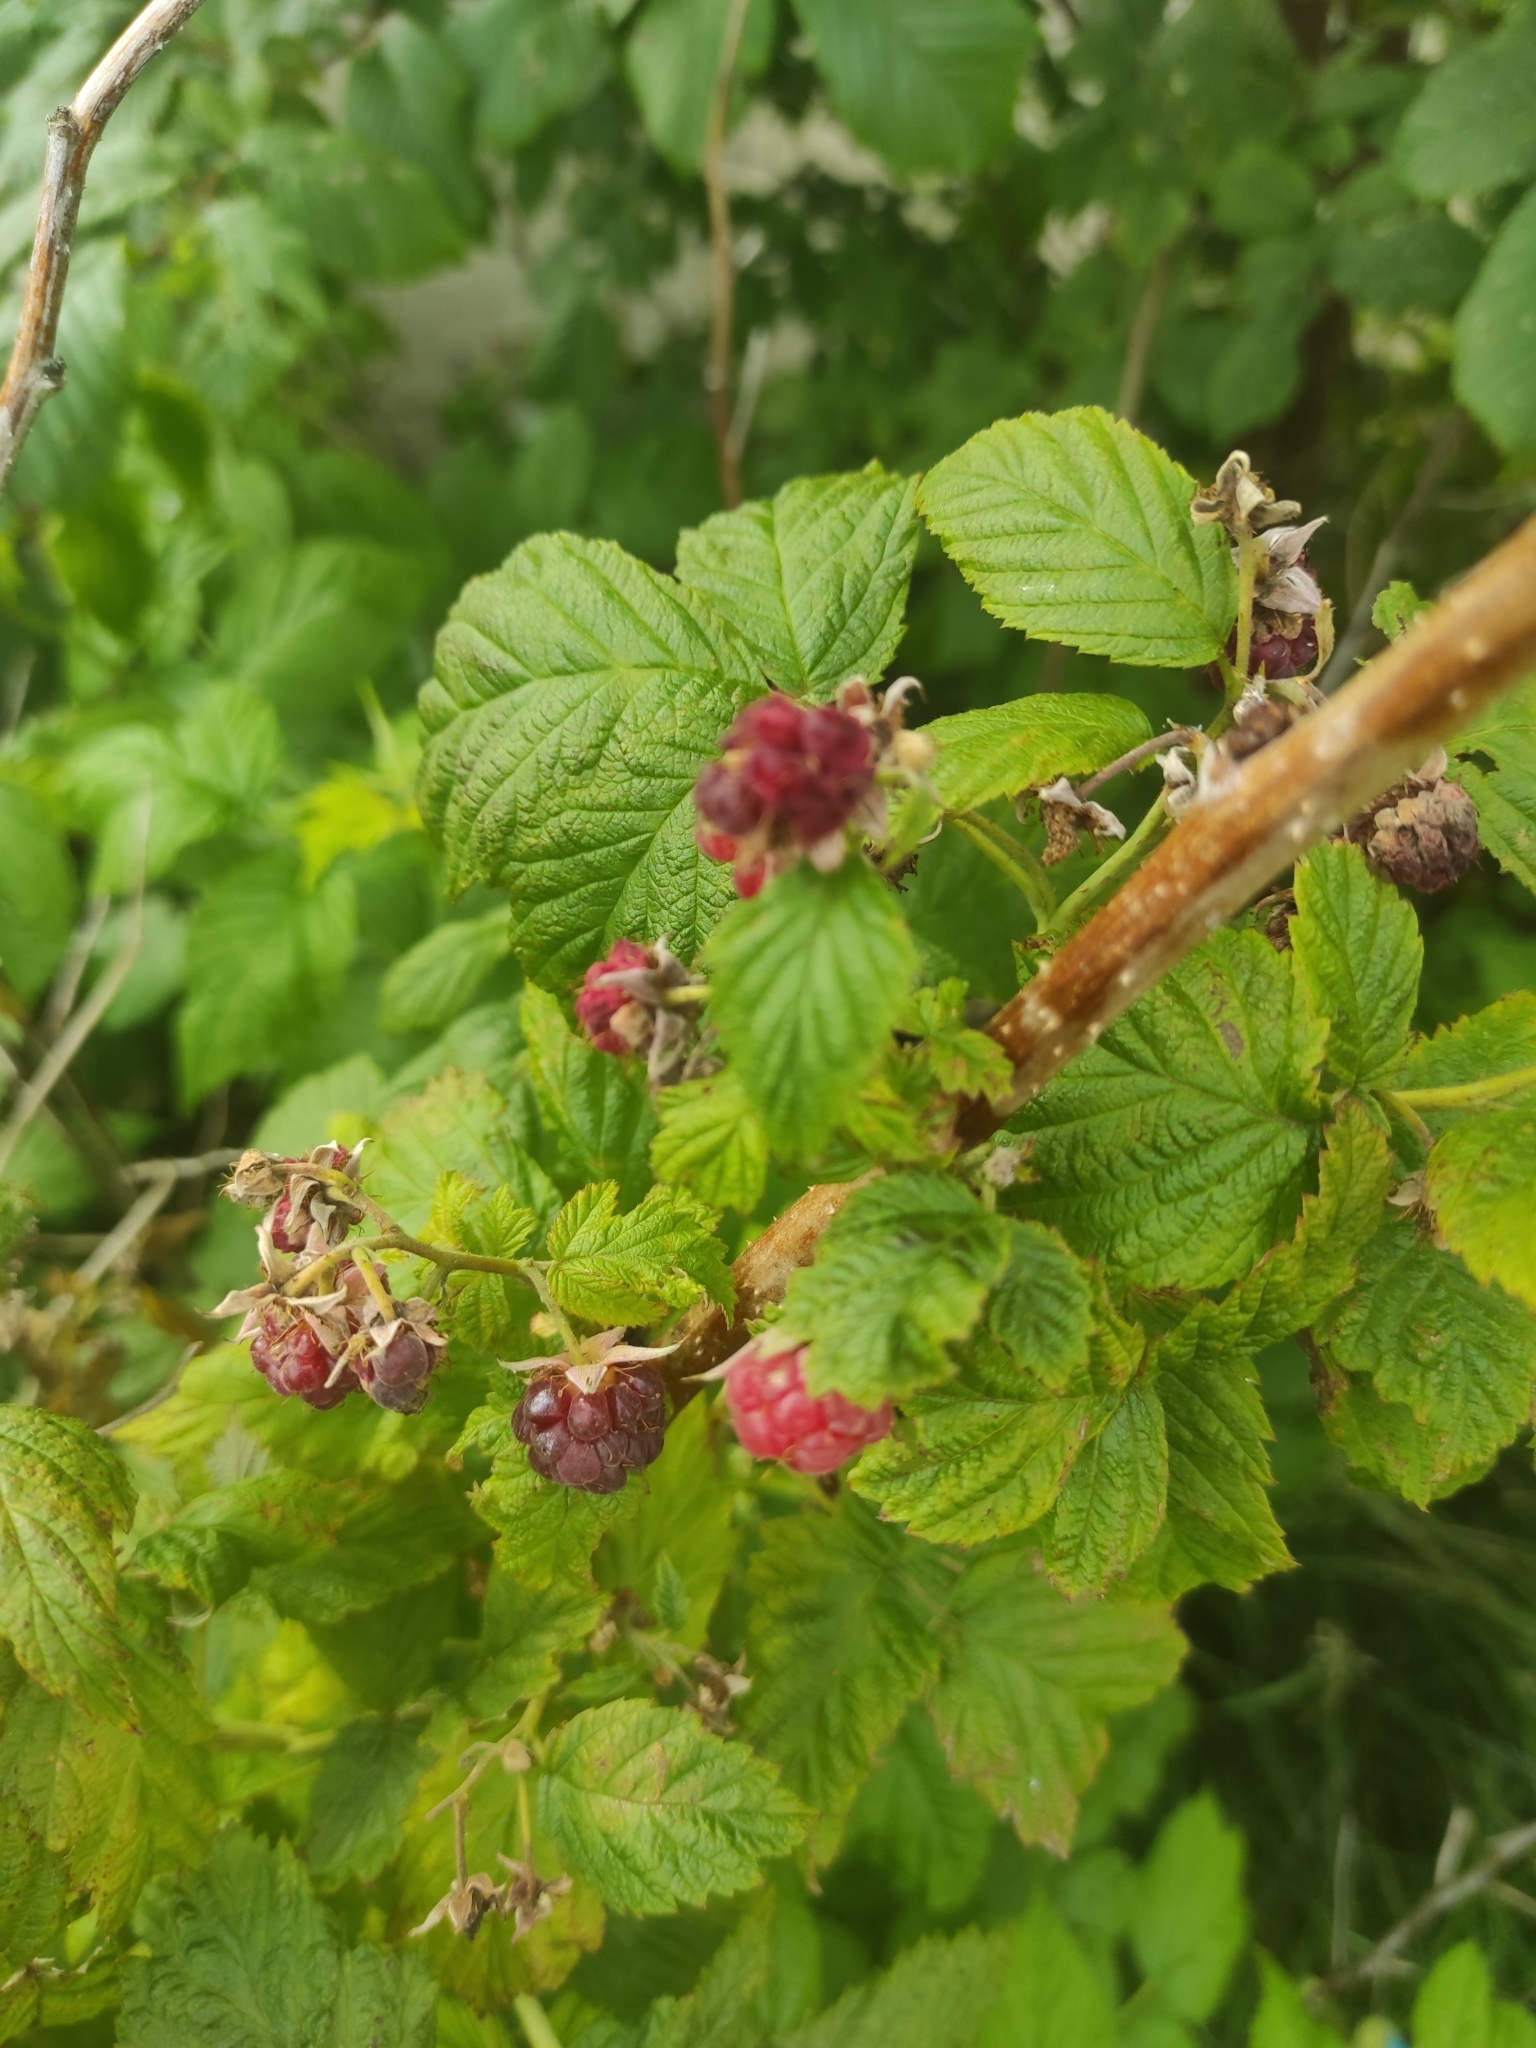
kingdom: Plantae
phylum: Tracheophyta
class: Magnoliopsida
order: Rosales
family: Rosaceae
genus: Rubus
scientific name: Rubus idaeus
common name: Raspberry
